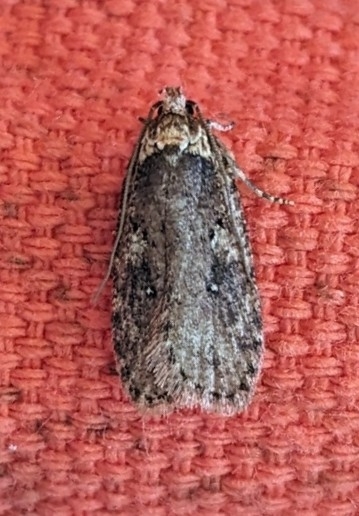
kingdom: Animalia
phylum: Arthropoda
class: Insecta
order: Lepidoptera
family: Depressariidae
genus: Agonopterix
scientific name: Agonopterix pulvipennella
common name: Goldenrod leafffolder
